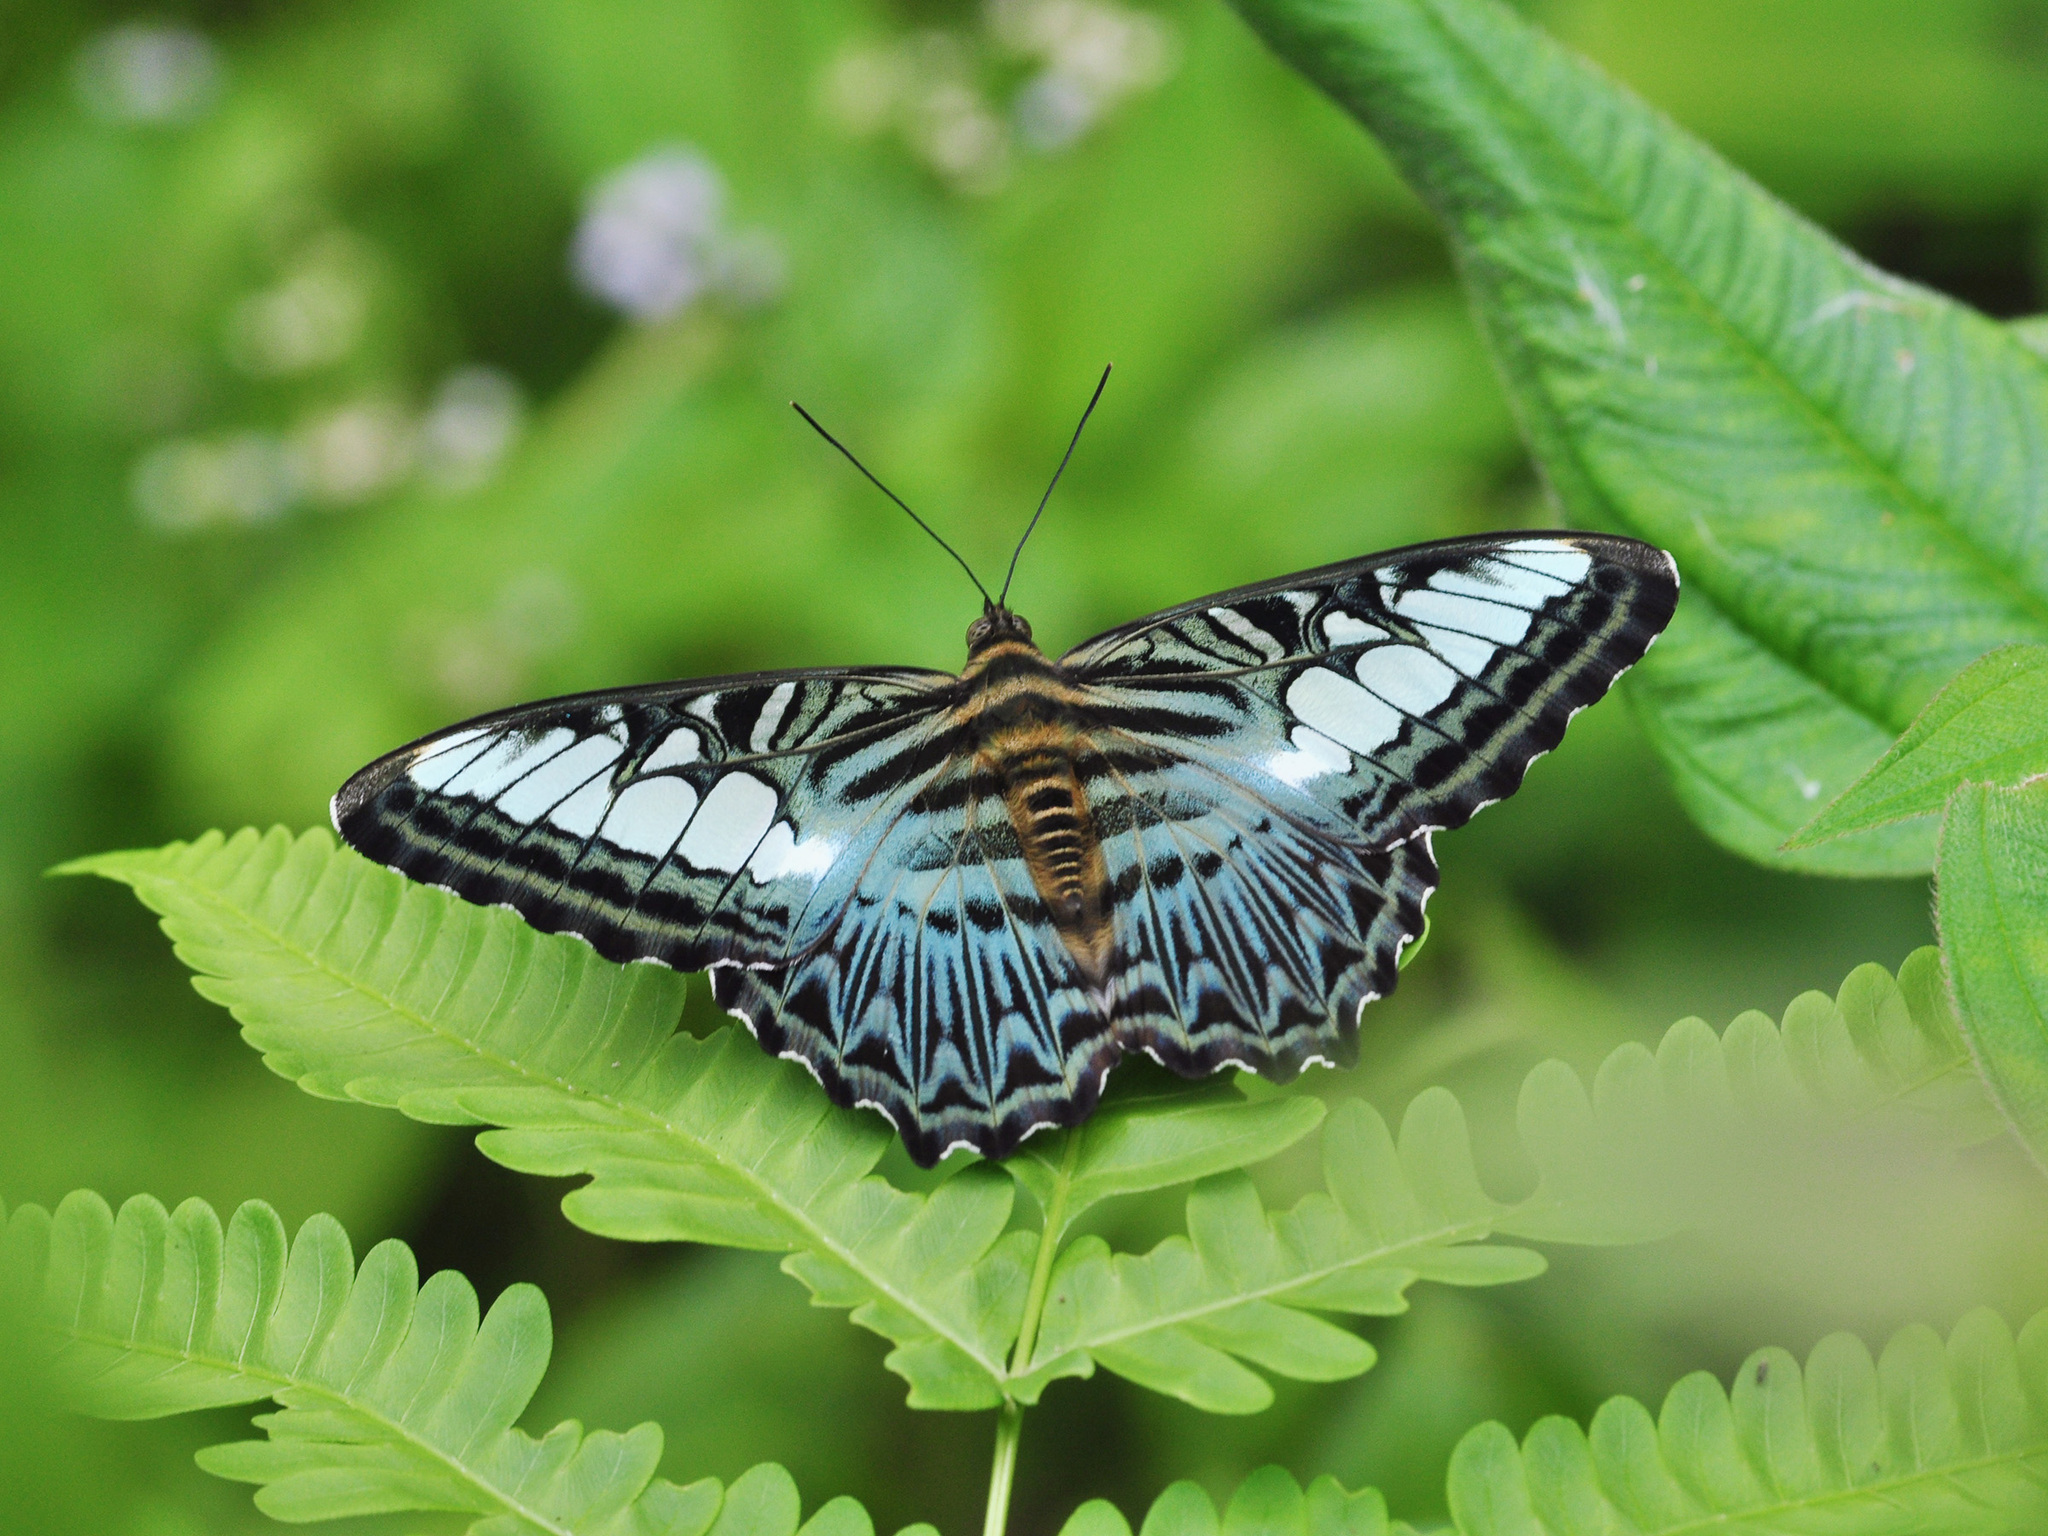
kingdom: Animalia
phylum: Arthropoda
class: Insecta
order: Lepidoptera
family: Nymphalidae
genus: Kallima
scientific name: Kallima sylvia
